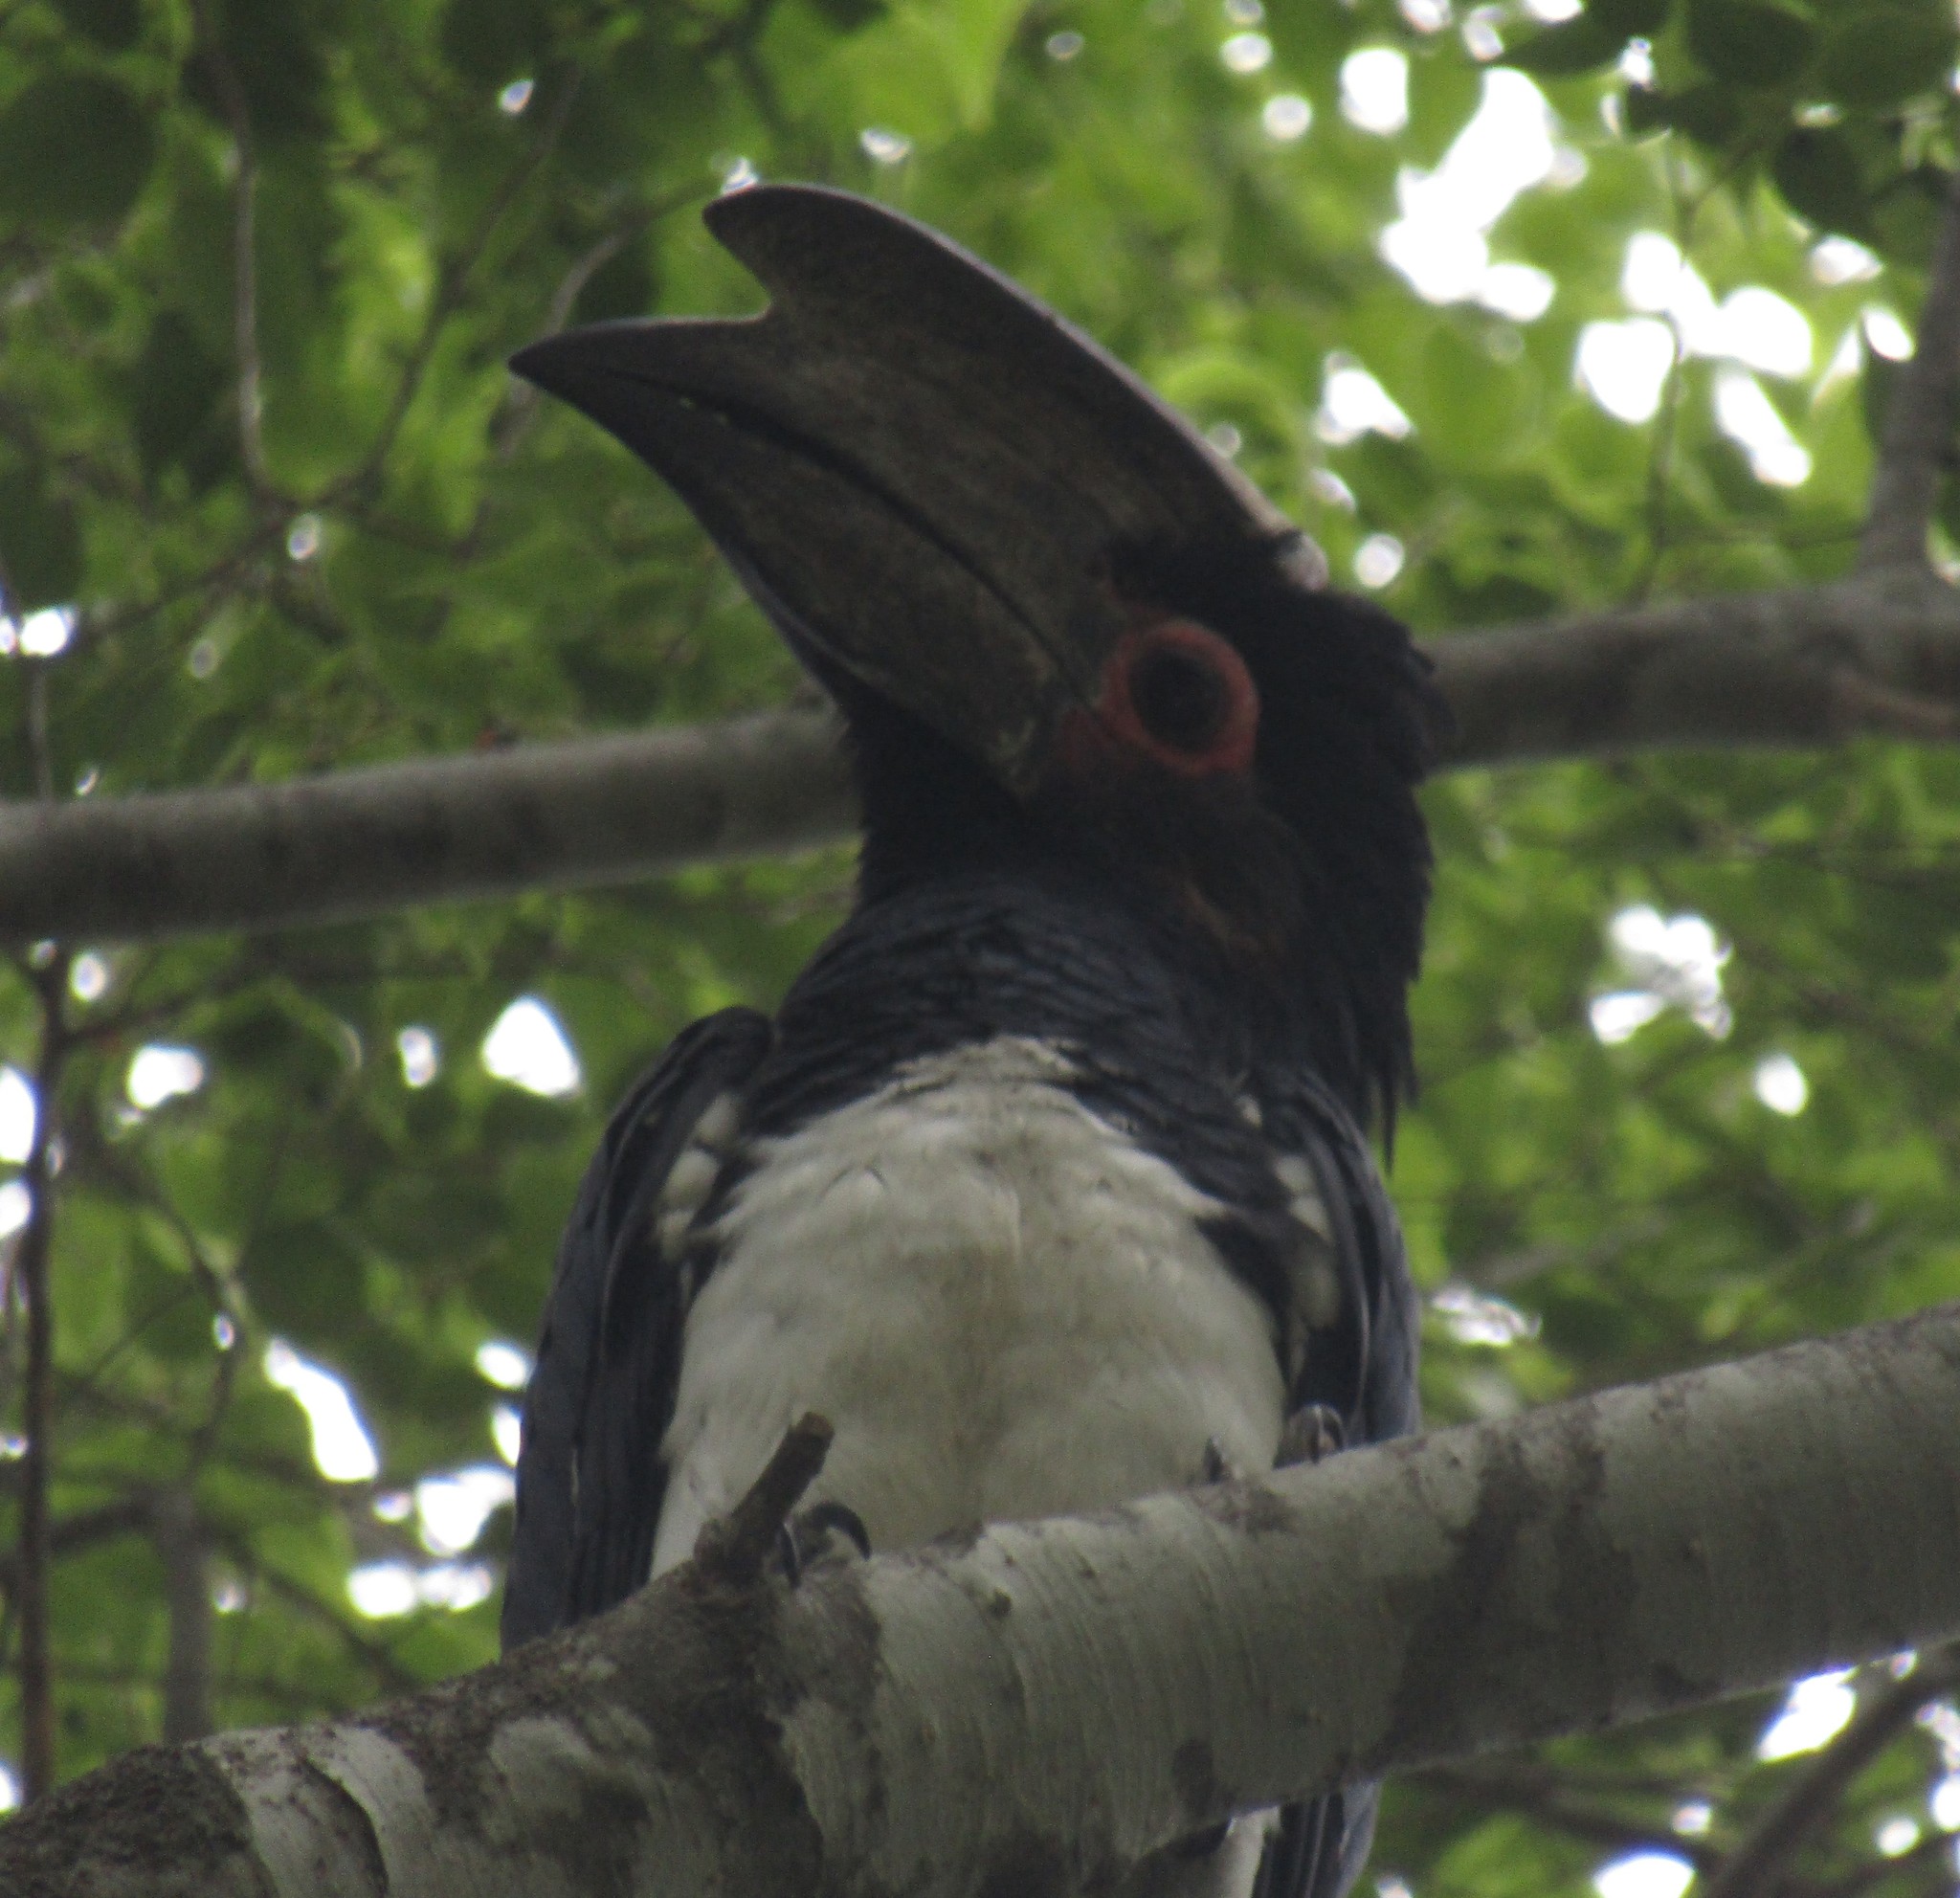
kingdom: Animalia
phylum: Chordata
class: Aves
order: Bucerotiformes
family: Bucerotidae
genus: Bycanistes
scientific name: Bycanistes bucinator
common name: Trumpeter hornbill
